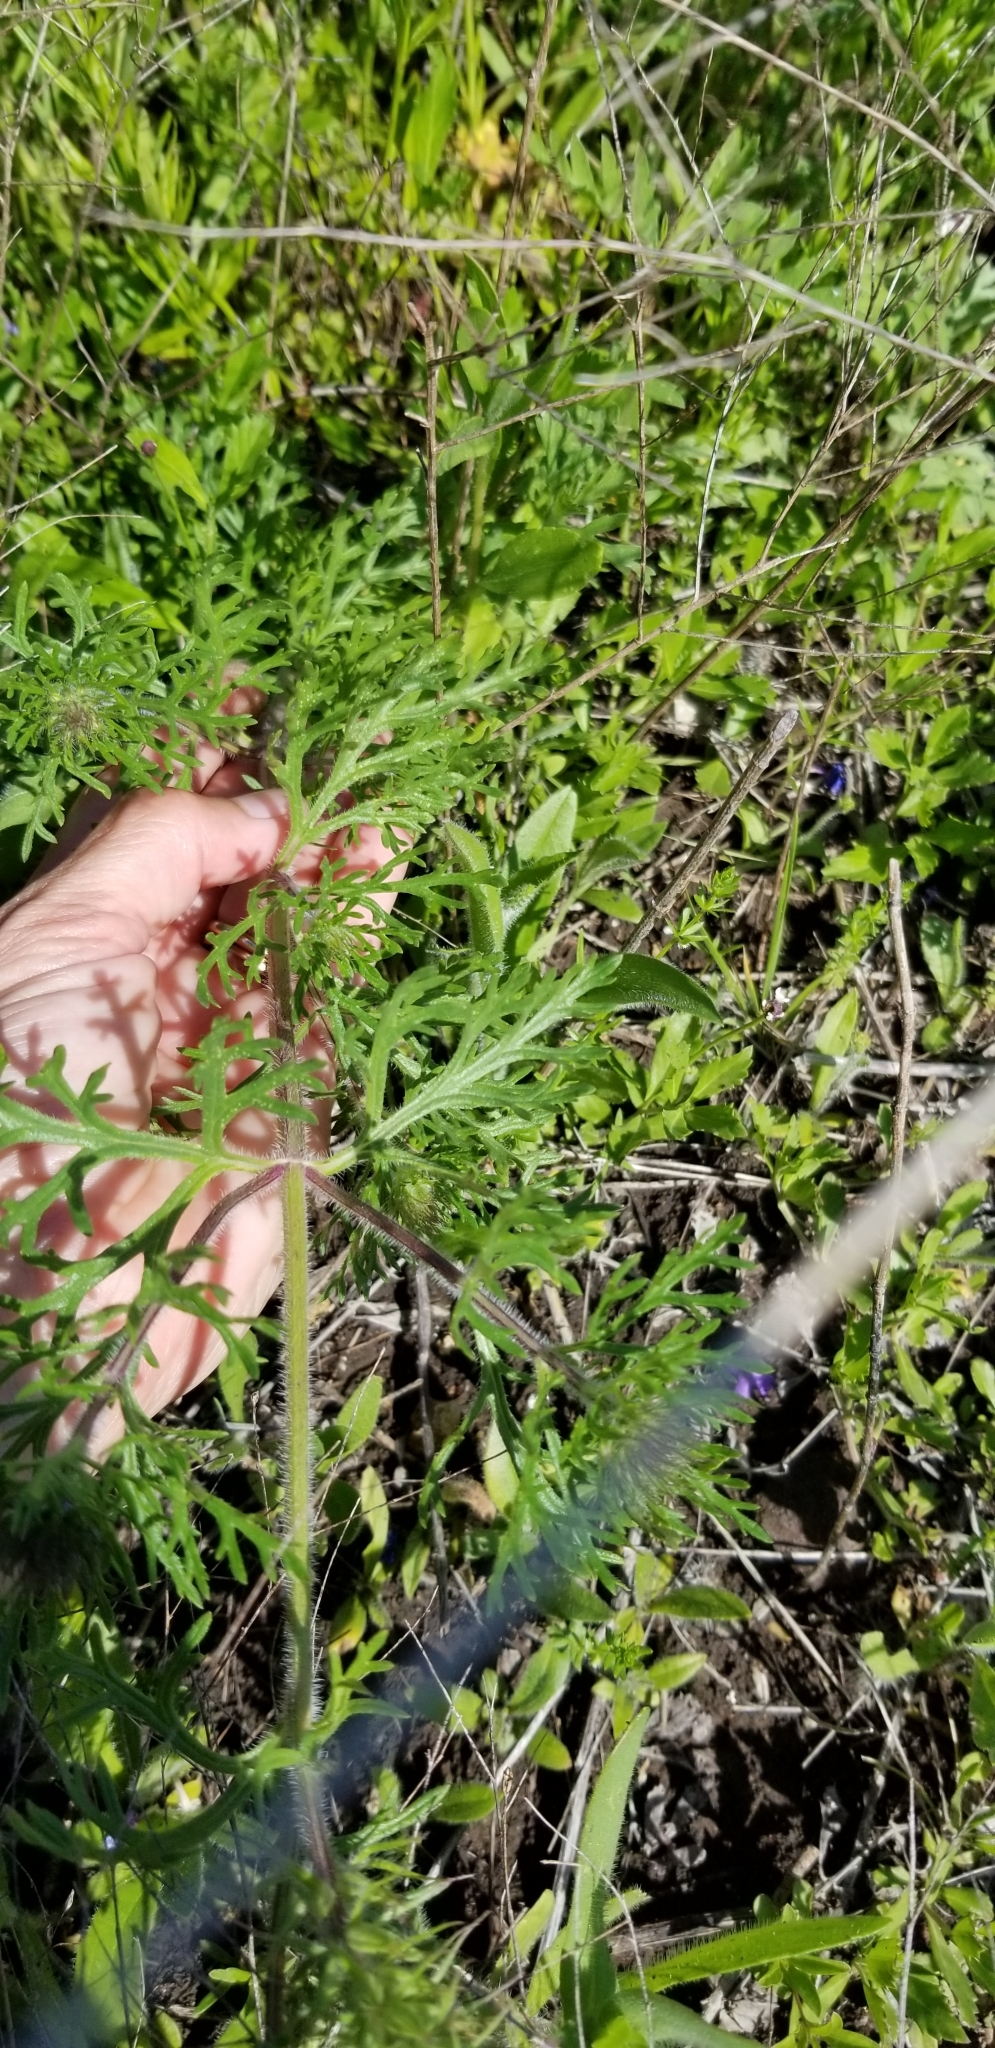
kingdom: Plantae
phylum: Tracheophyta
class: Magnoliopsida
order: Lamiales
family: Verbenaceae
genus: Verbena
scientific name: Verbena bipinnatifida
